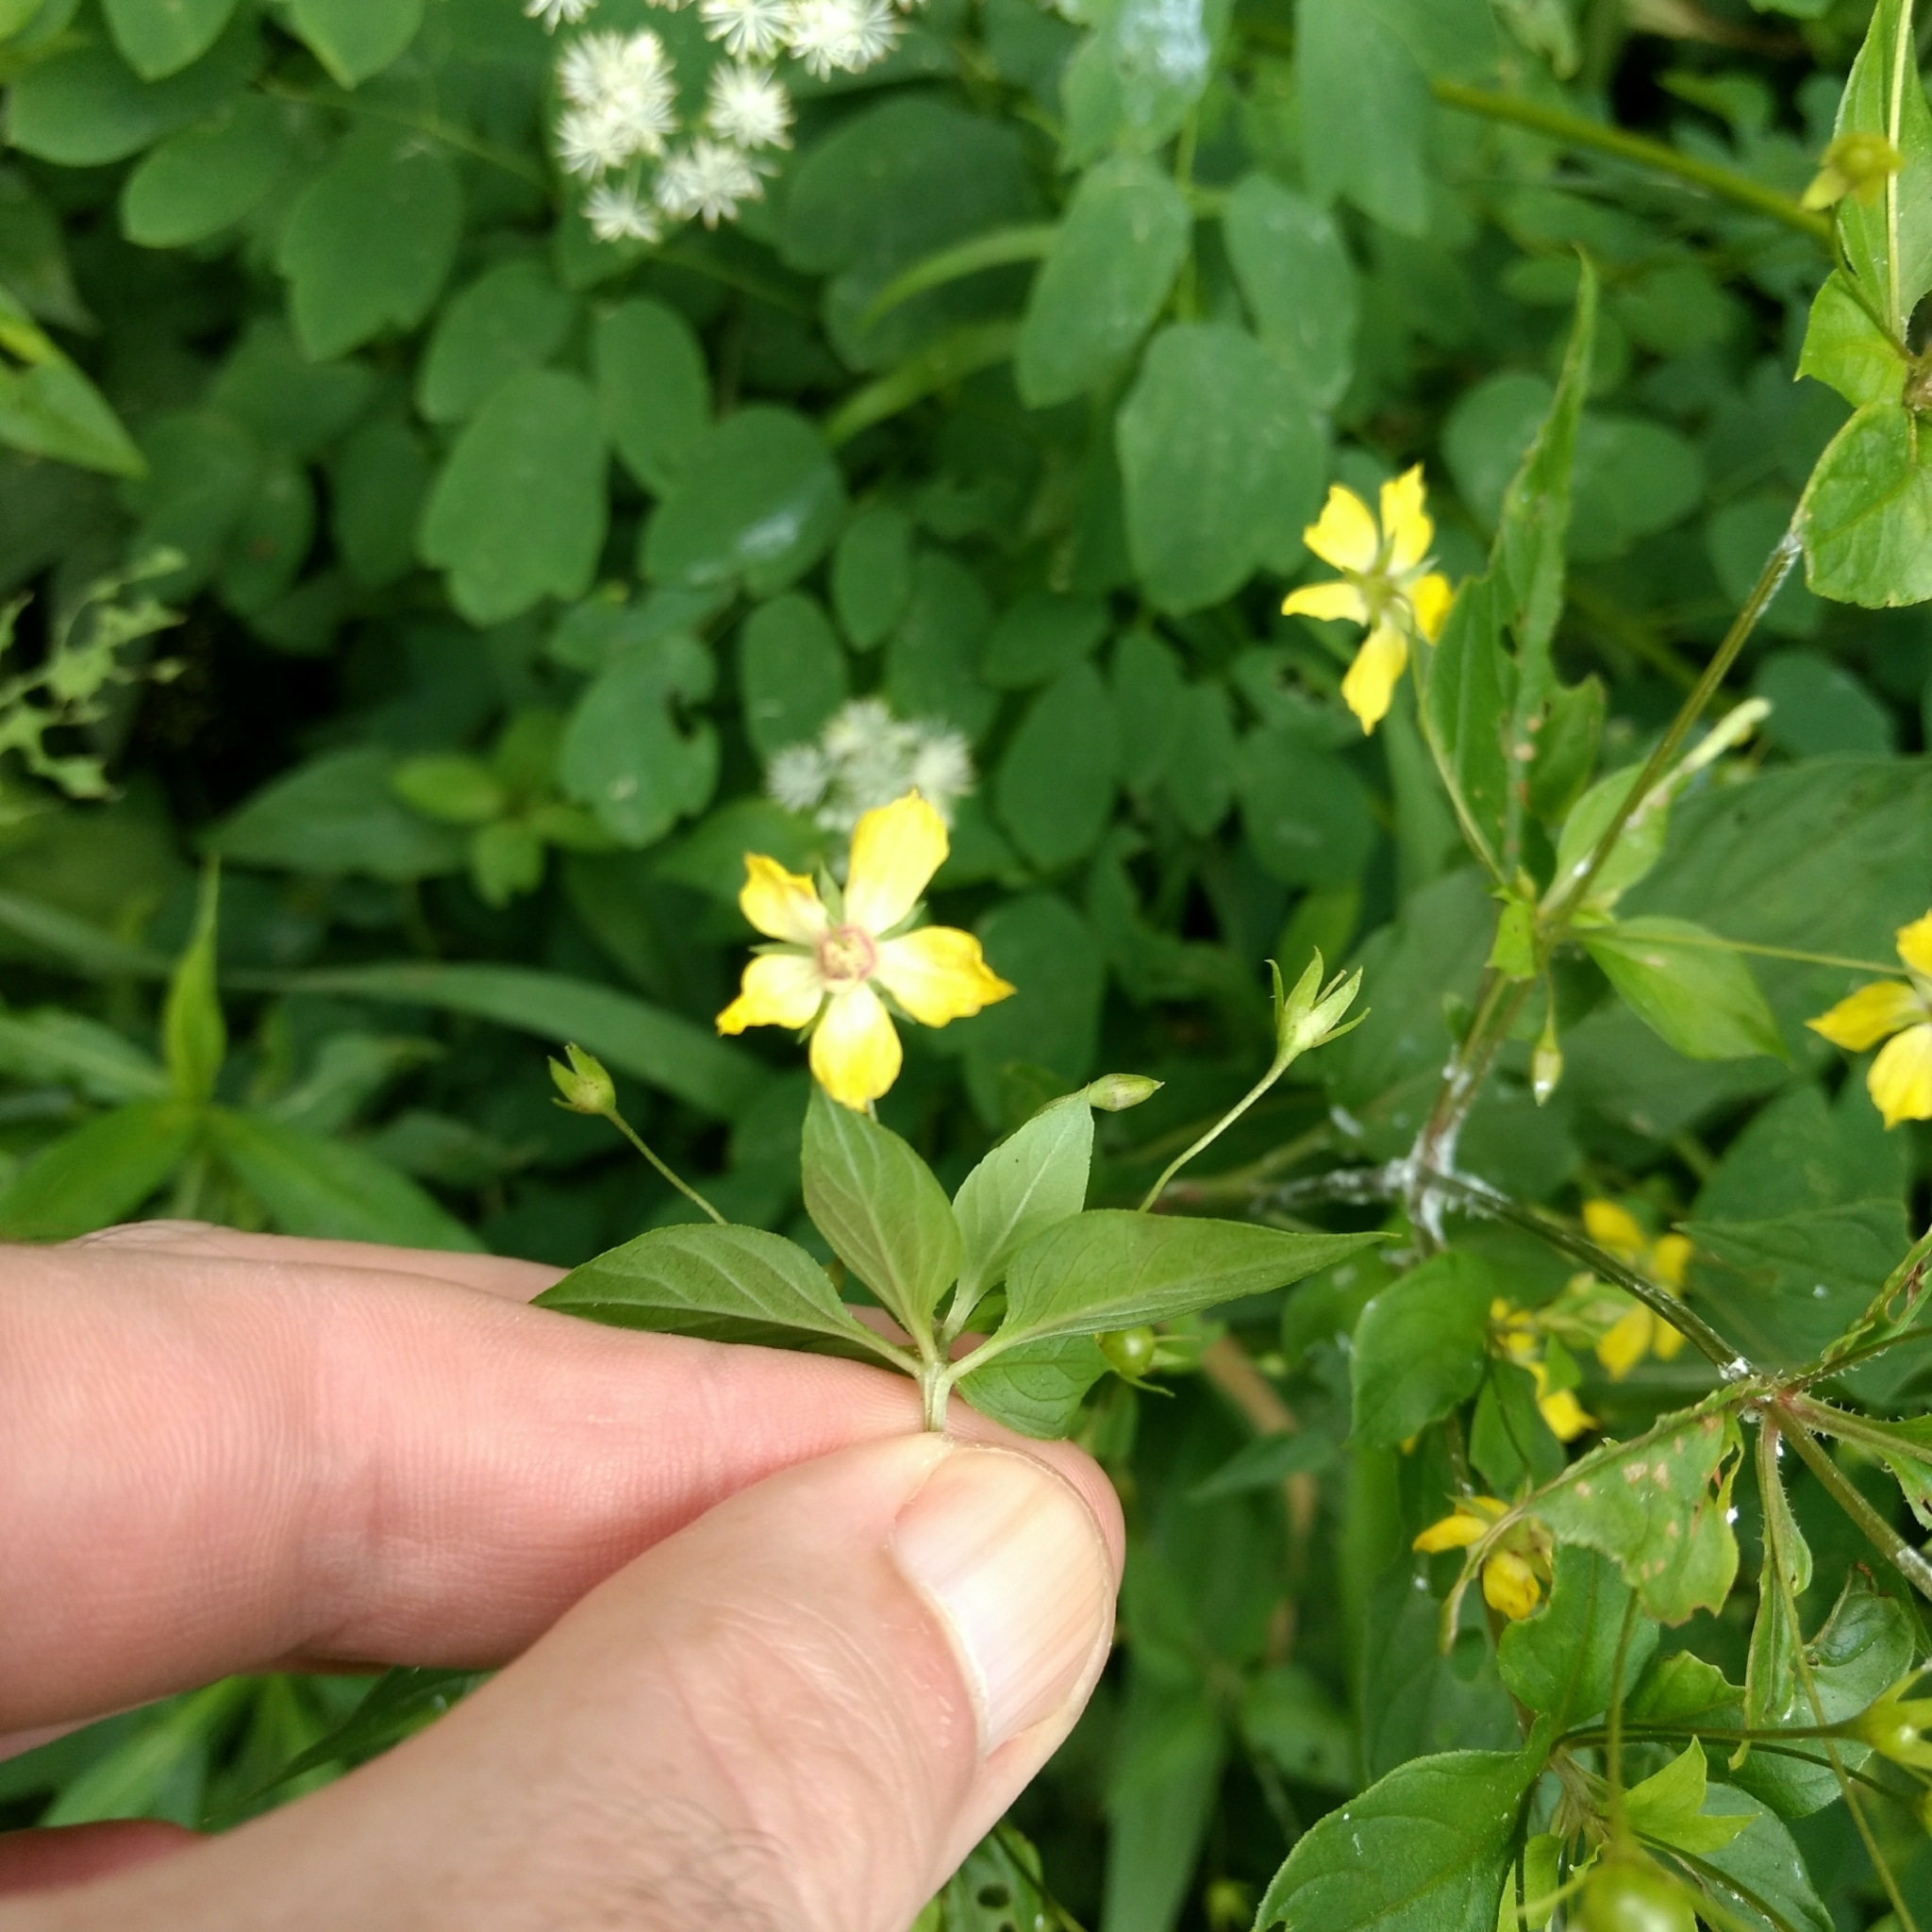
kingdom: Plantae
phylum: Tracheophyta
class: Magnoliopsida
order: Ericales
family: Primulaceae
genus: Lysimachia
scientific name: Lysimachia ciliata
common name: Fringed loosestrife
